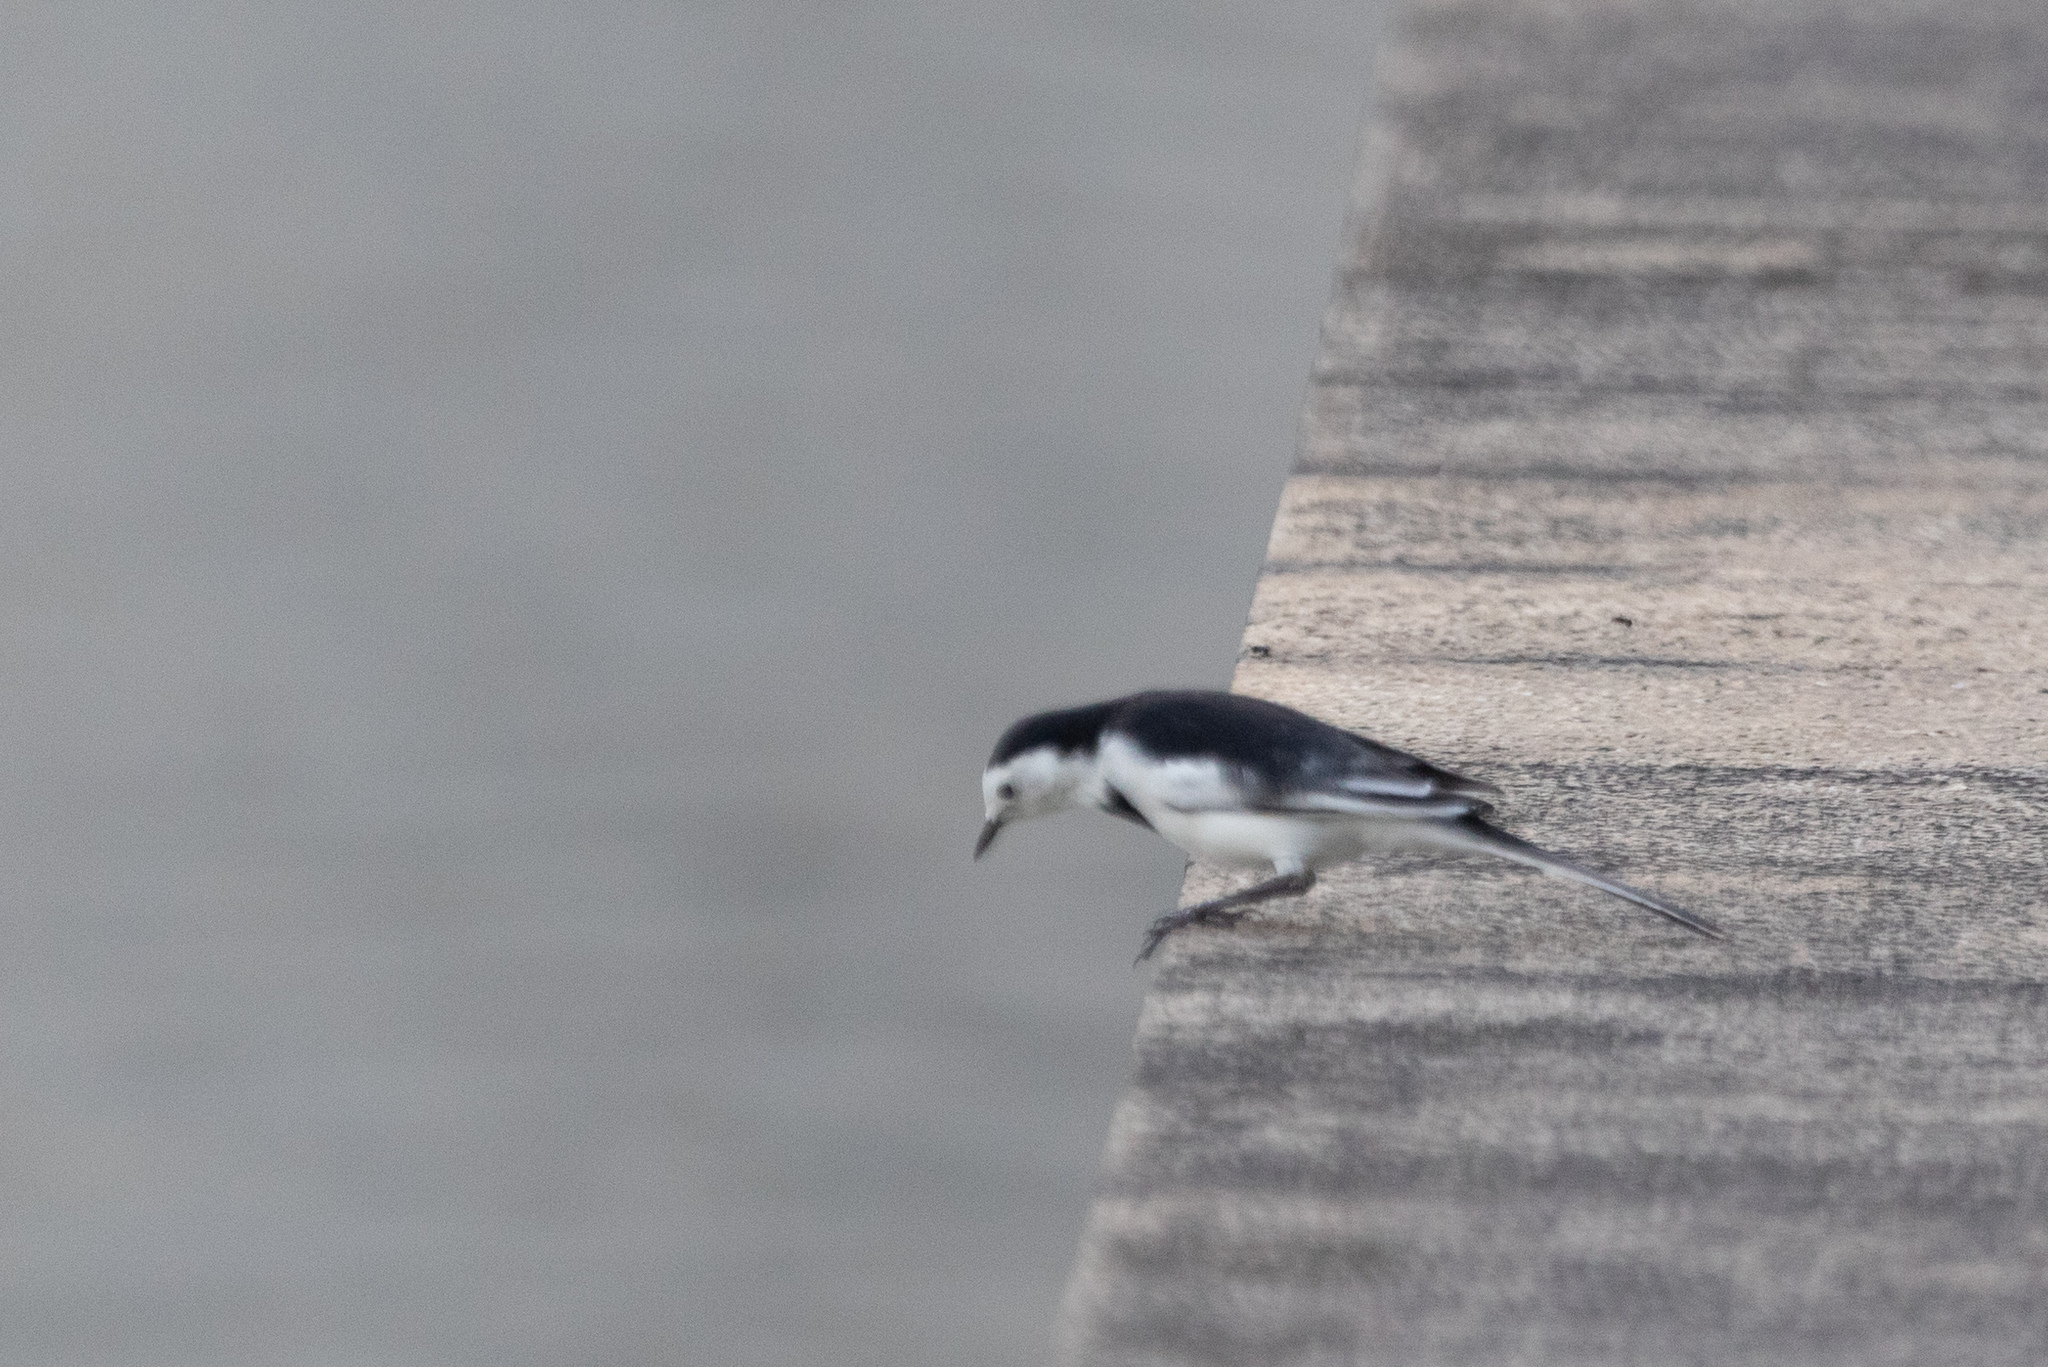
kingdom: Animalia
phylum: Chordata
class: Aves
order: Passeriformes
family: Motacillidae
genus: Motacilla
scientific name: Motacilla alba
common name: White wagtail
